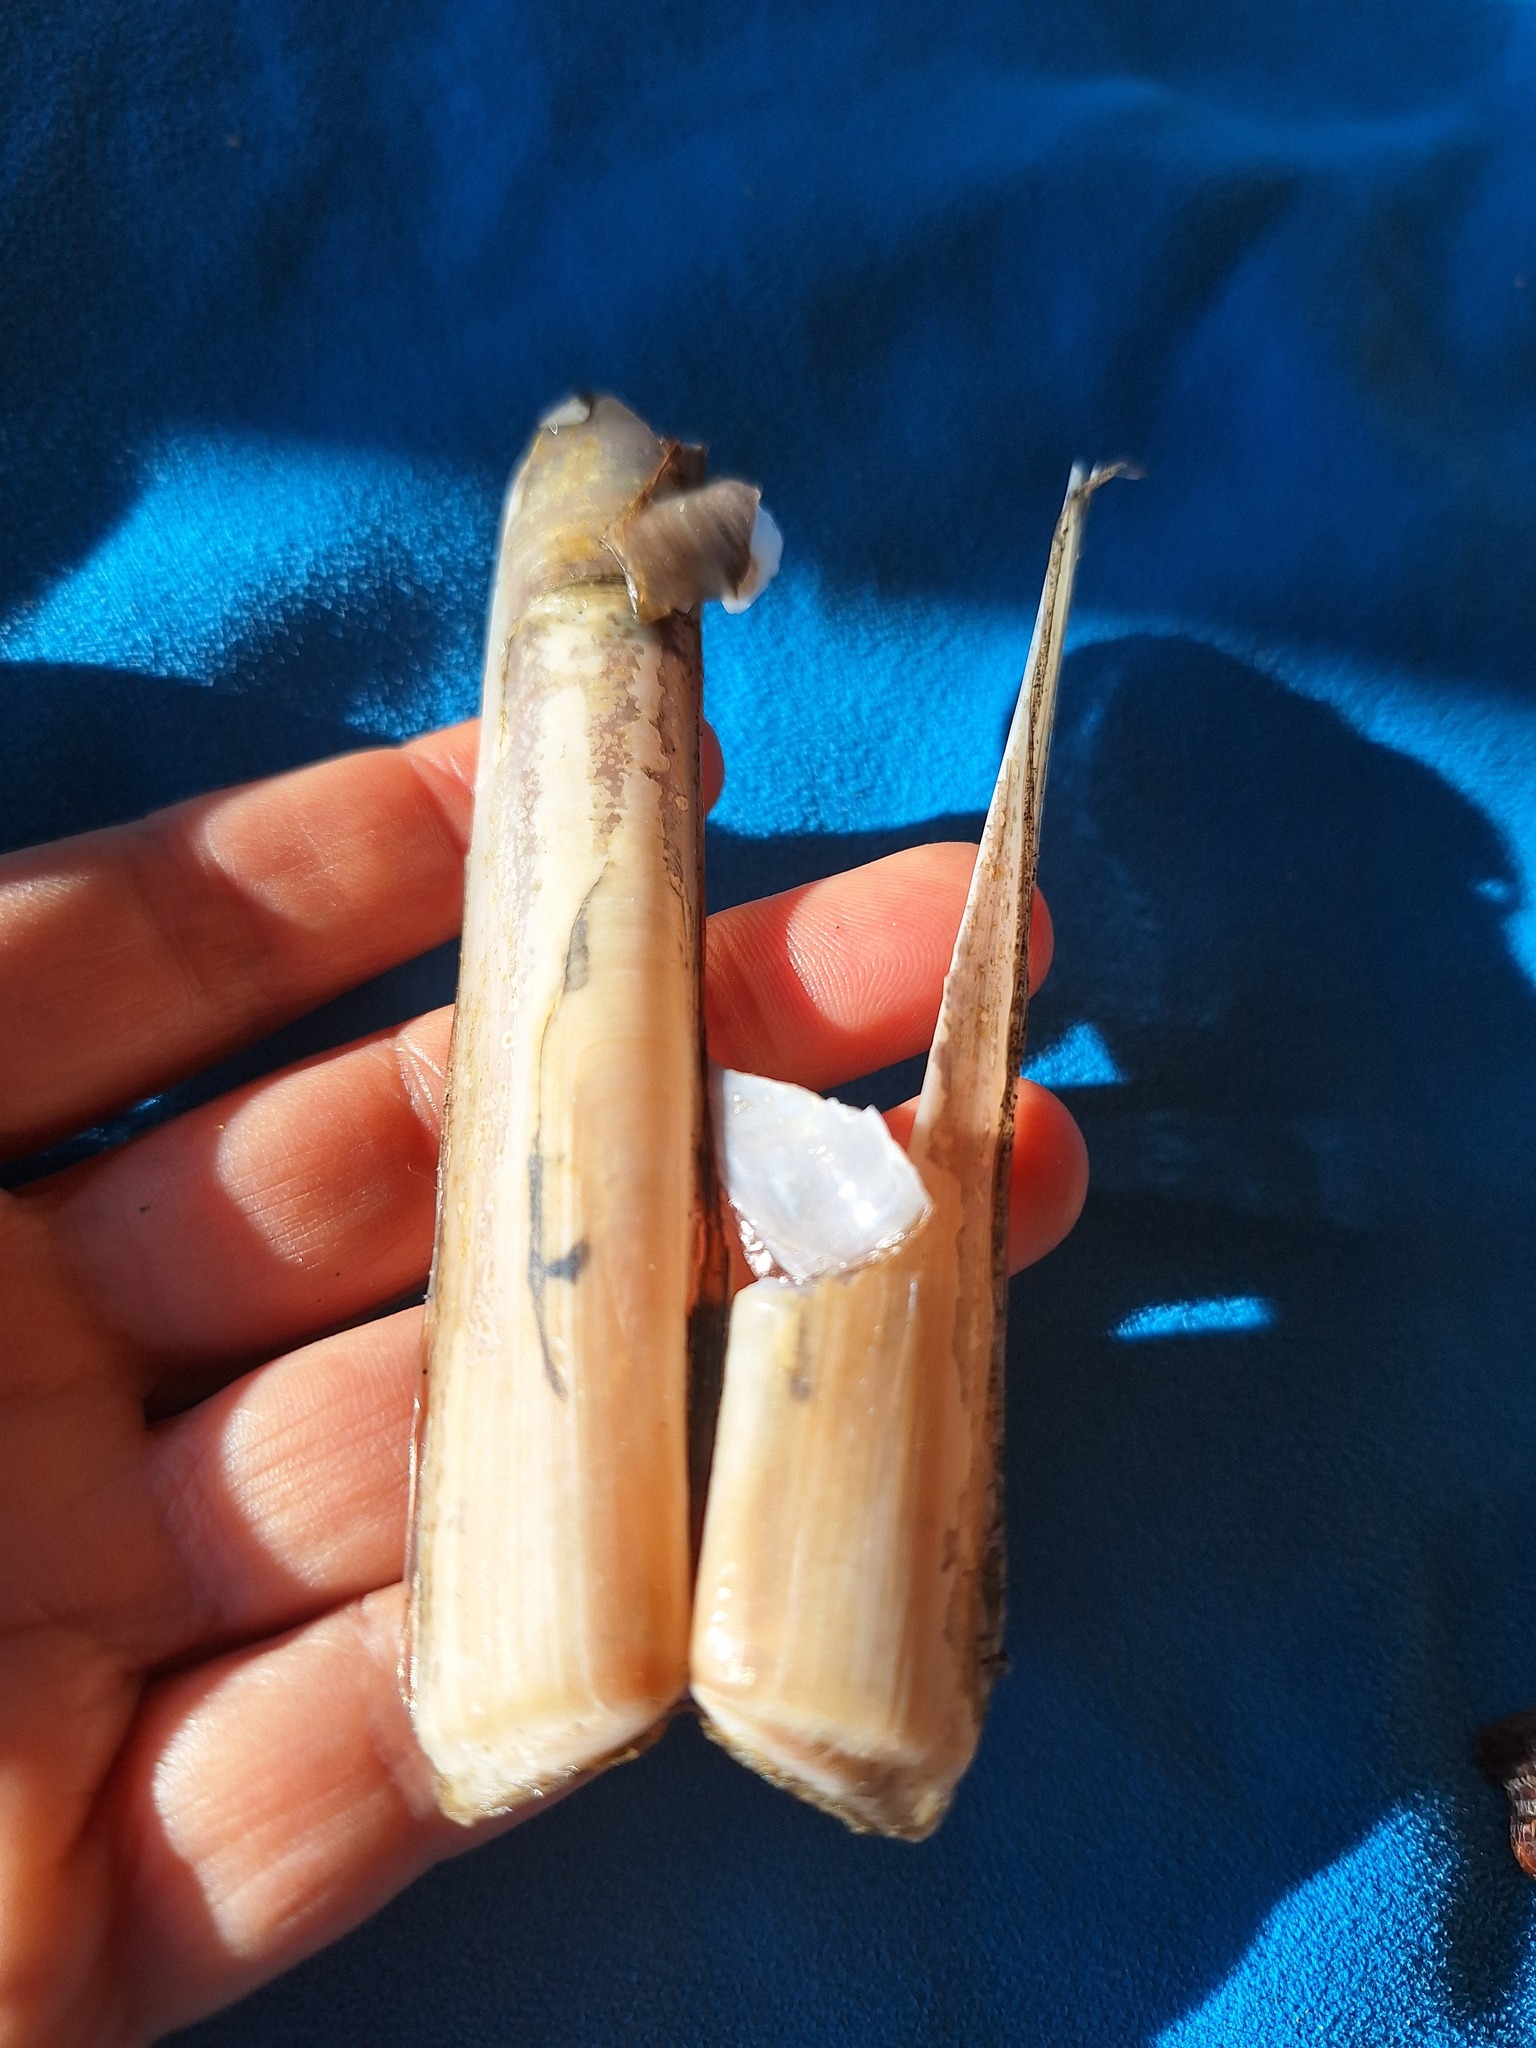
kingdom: Animalia
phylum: Mollusca
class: Bivalvia
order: Adapedonta
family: Solenidae
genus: Solen
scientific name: Solen marginatus
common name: Grooved razor shell
